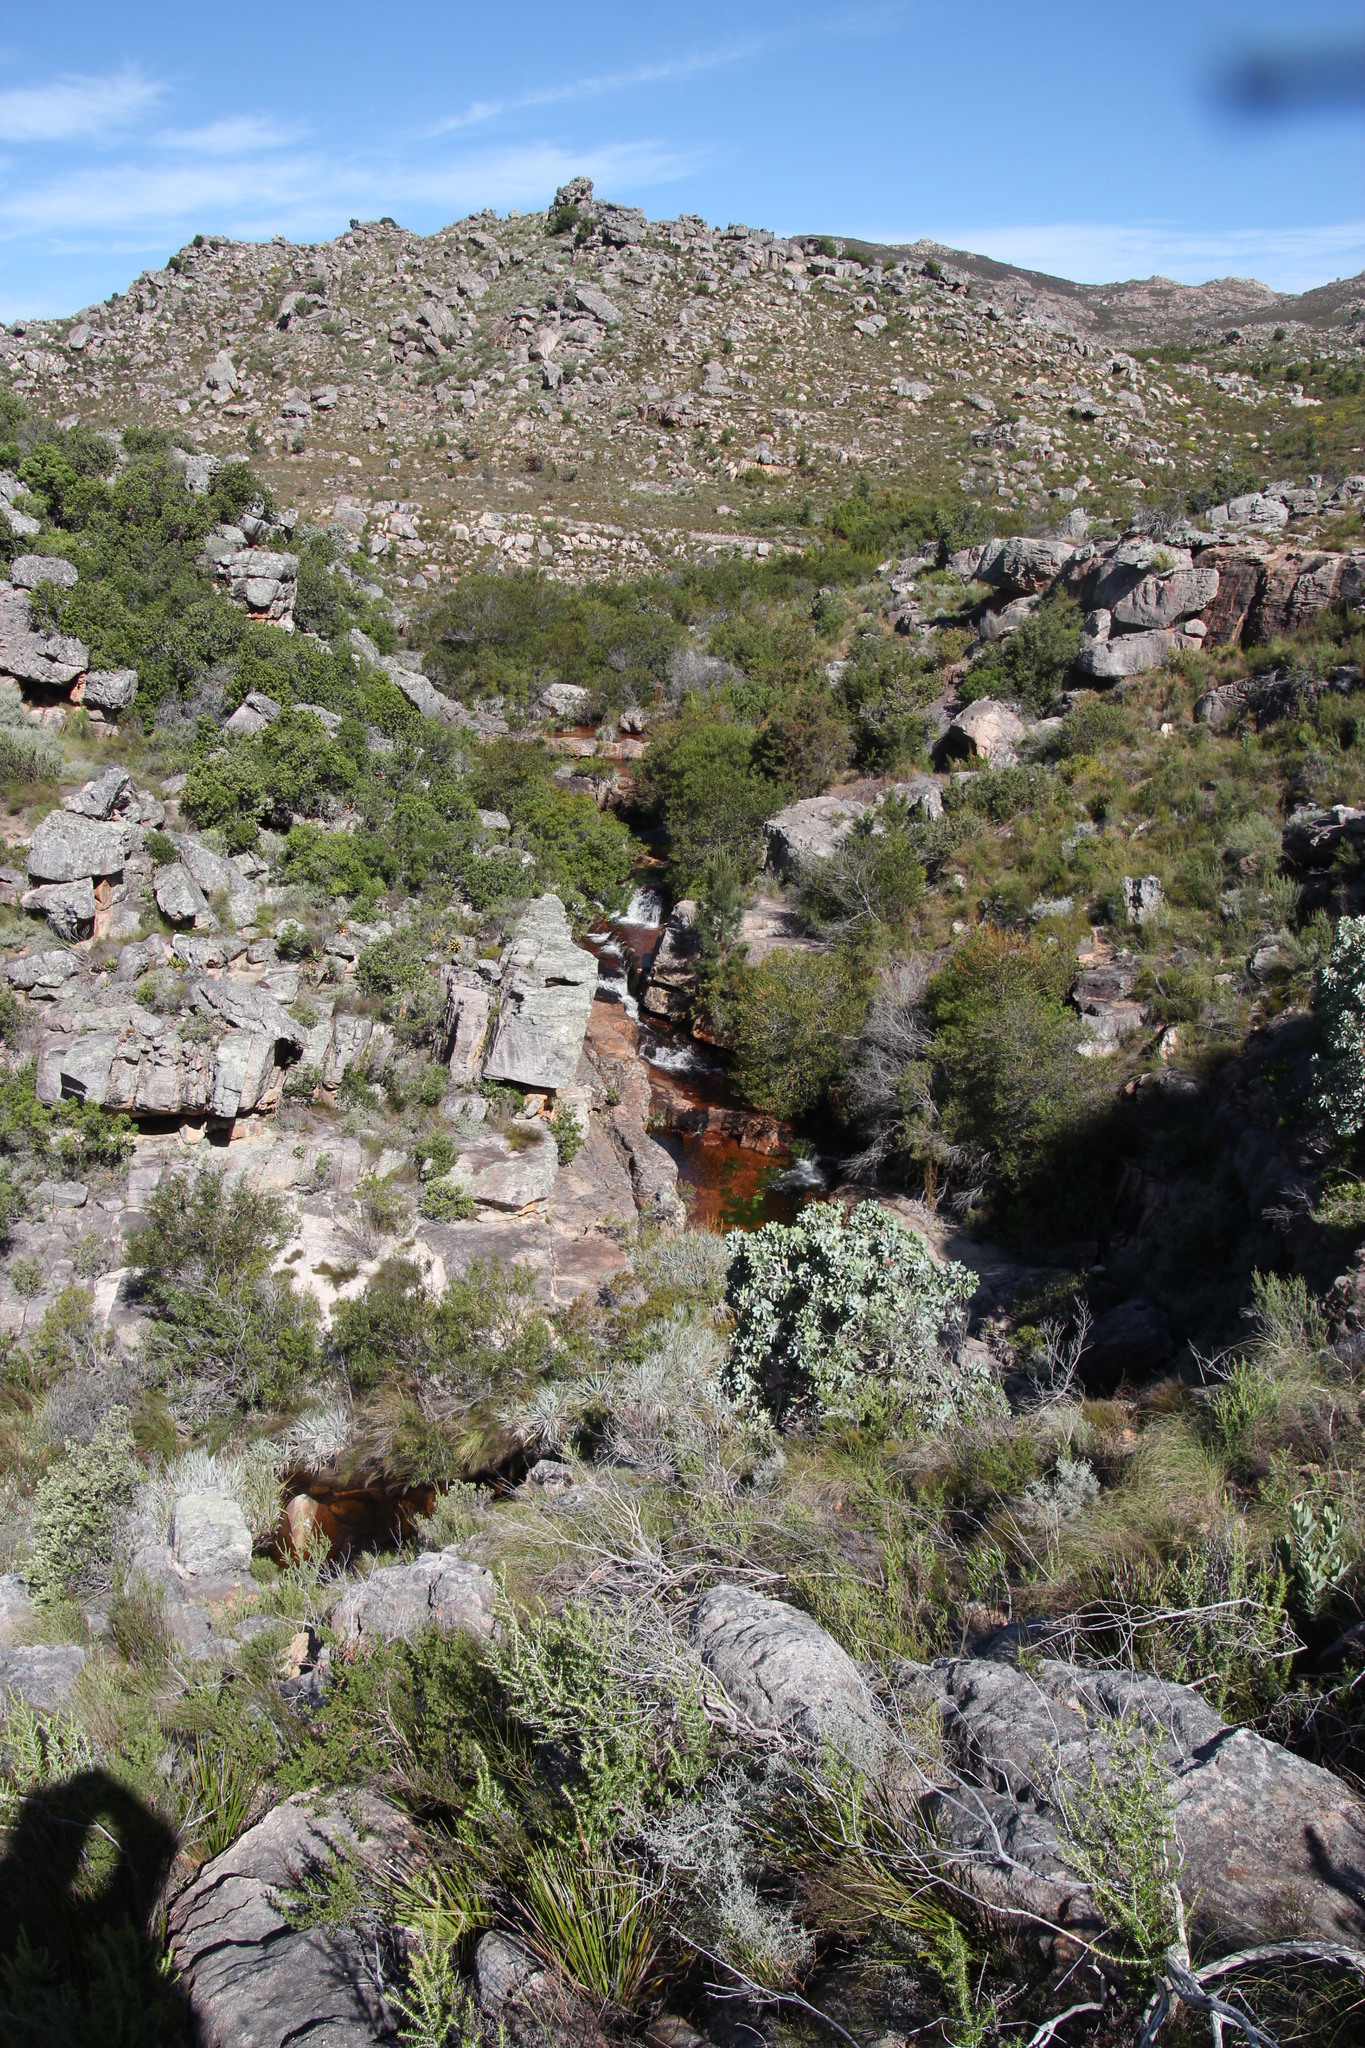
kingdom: Plantae
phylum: Tracheophyta
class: Magnoliopsida
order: Celastrales
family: Celastraceae
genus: Gymnosporia
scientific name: Gymnosporia laurina
